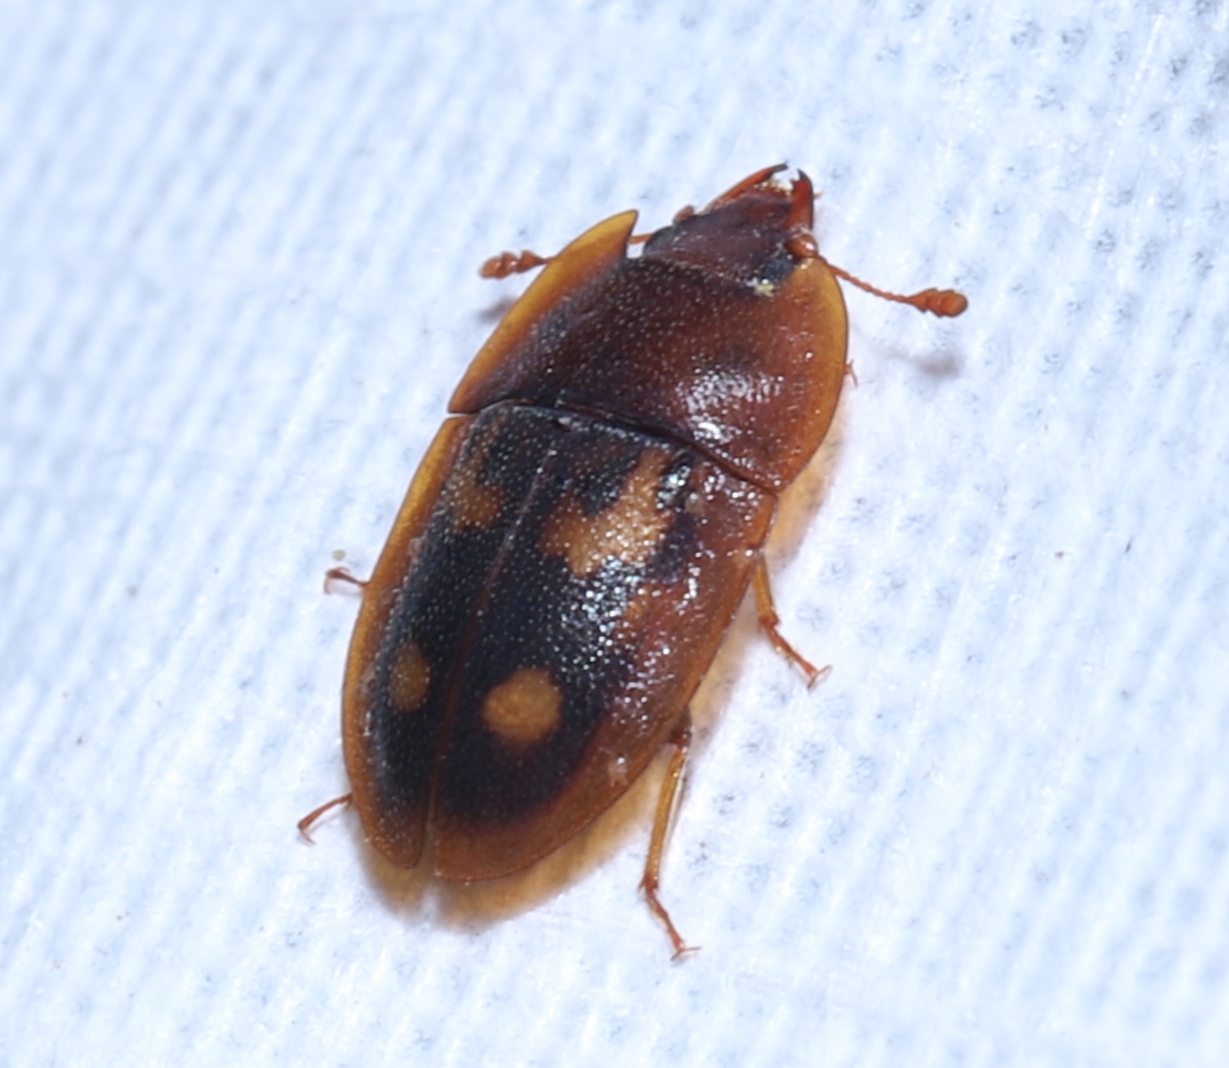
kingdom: Animalia
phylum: Arthropoda
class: Insecta
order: Coleoptera
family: Nitidulidae
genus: Prometopia
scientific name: Prometopia sexmaculata
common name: Six-spotted sap-feeding beetle
